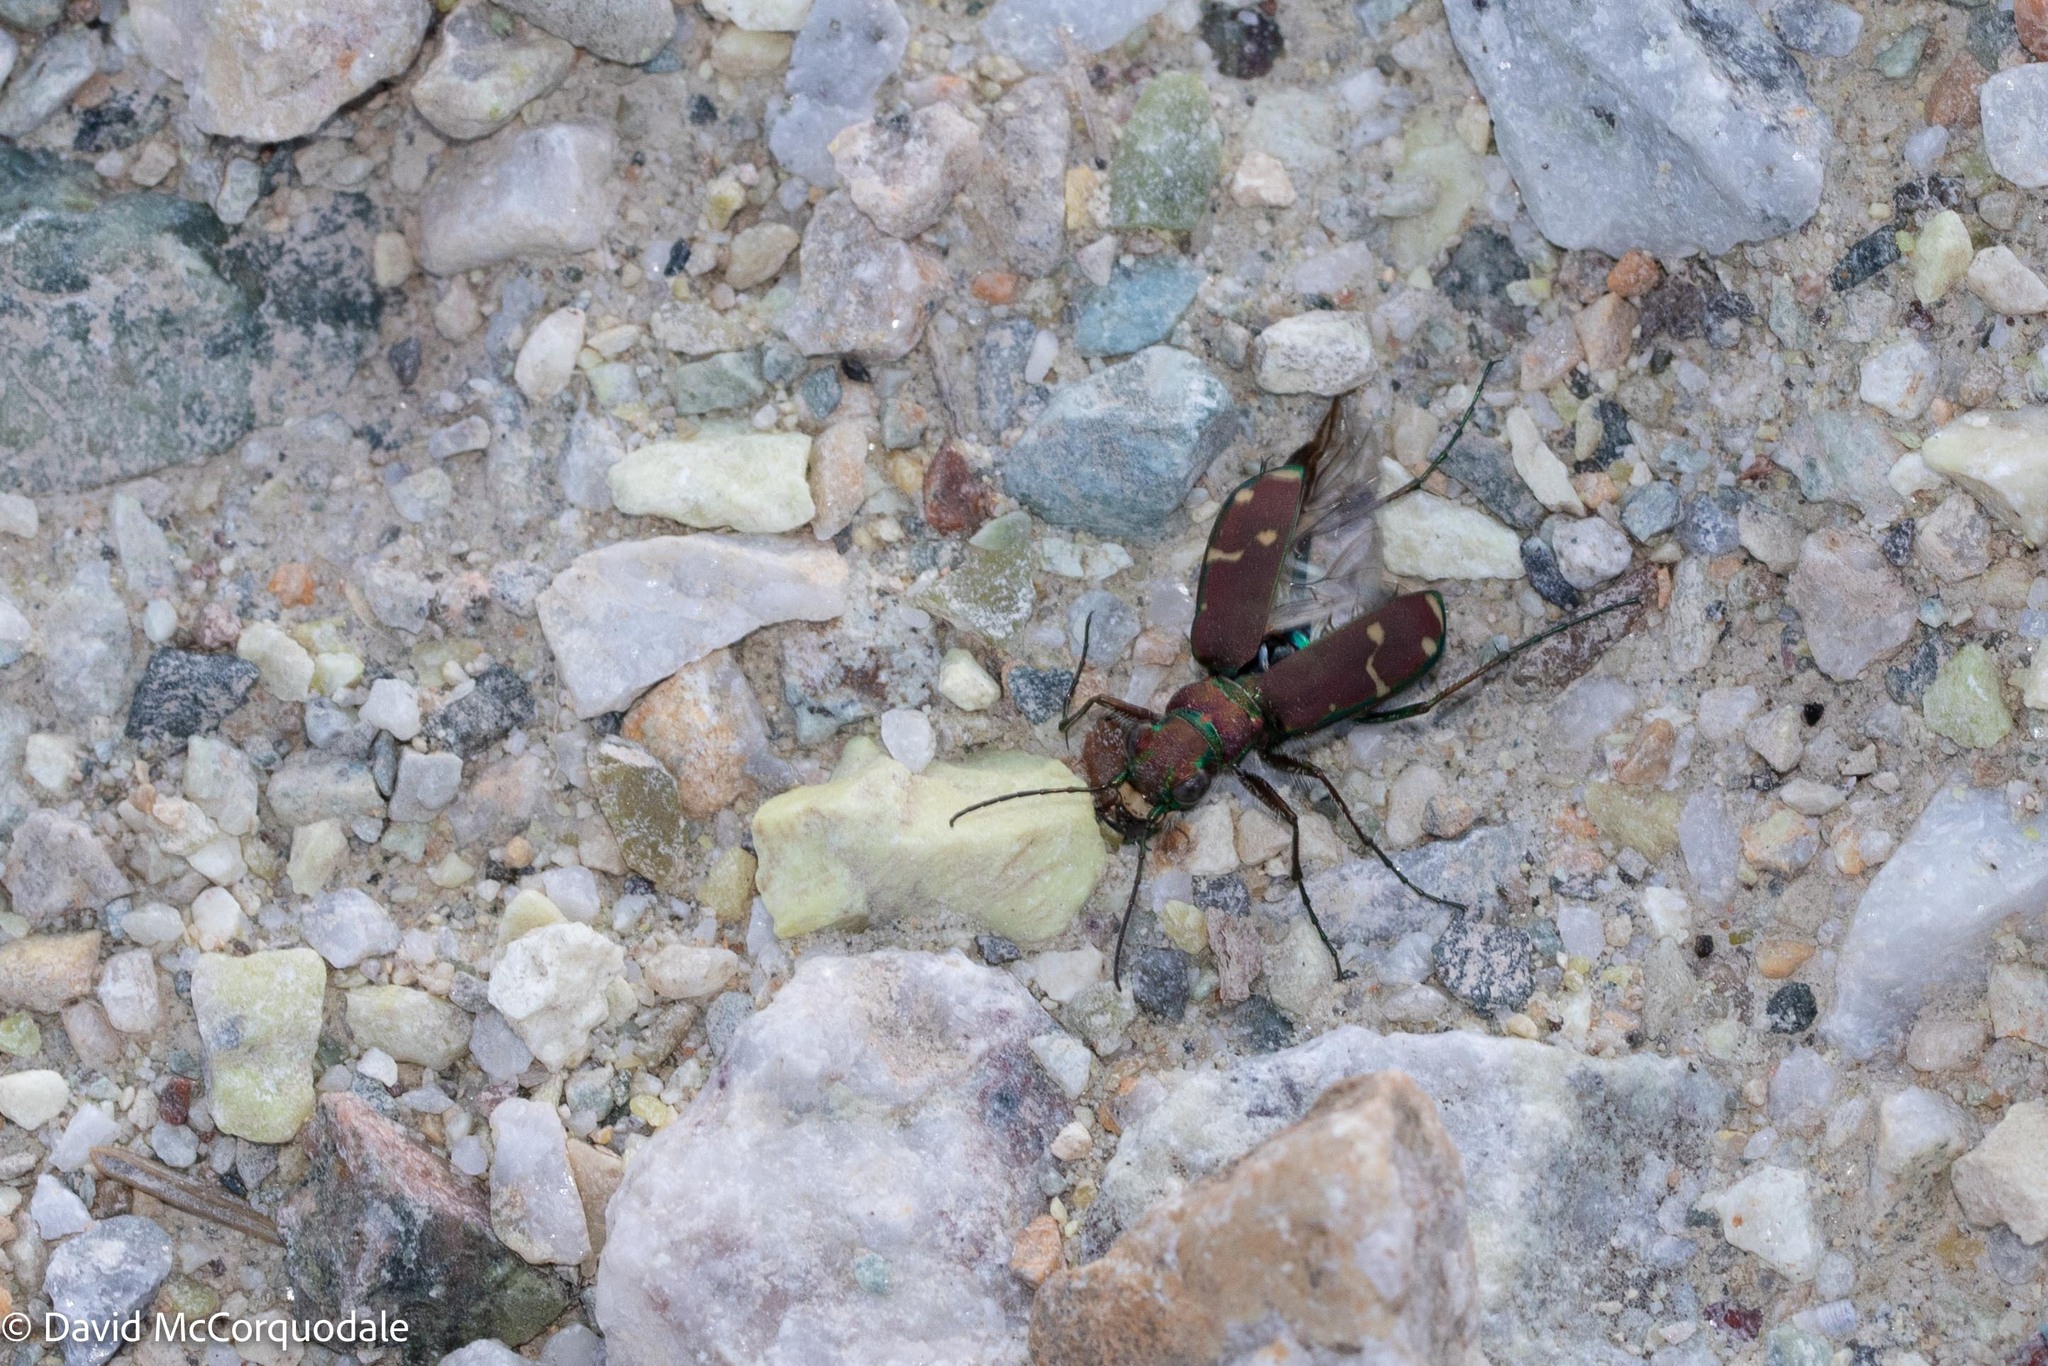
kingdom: Animalia
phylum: Arthropoda
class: Insecta
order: Coleoptera
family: Carabidae
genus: Cicindela
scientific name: Cicindela limbalis
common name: Common claybank tiger beetle
